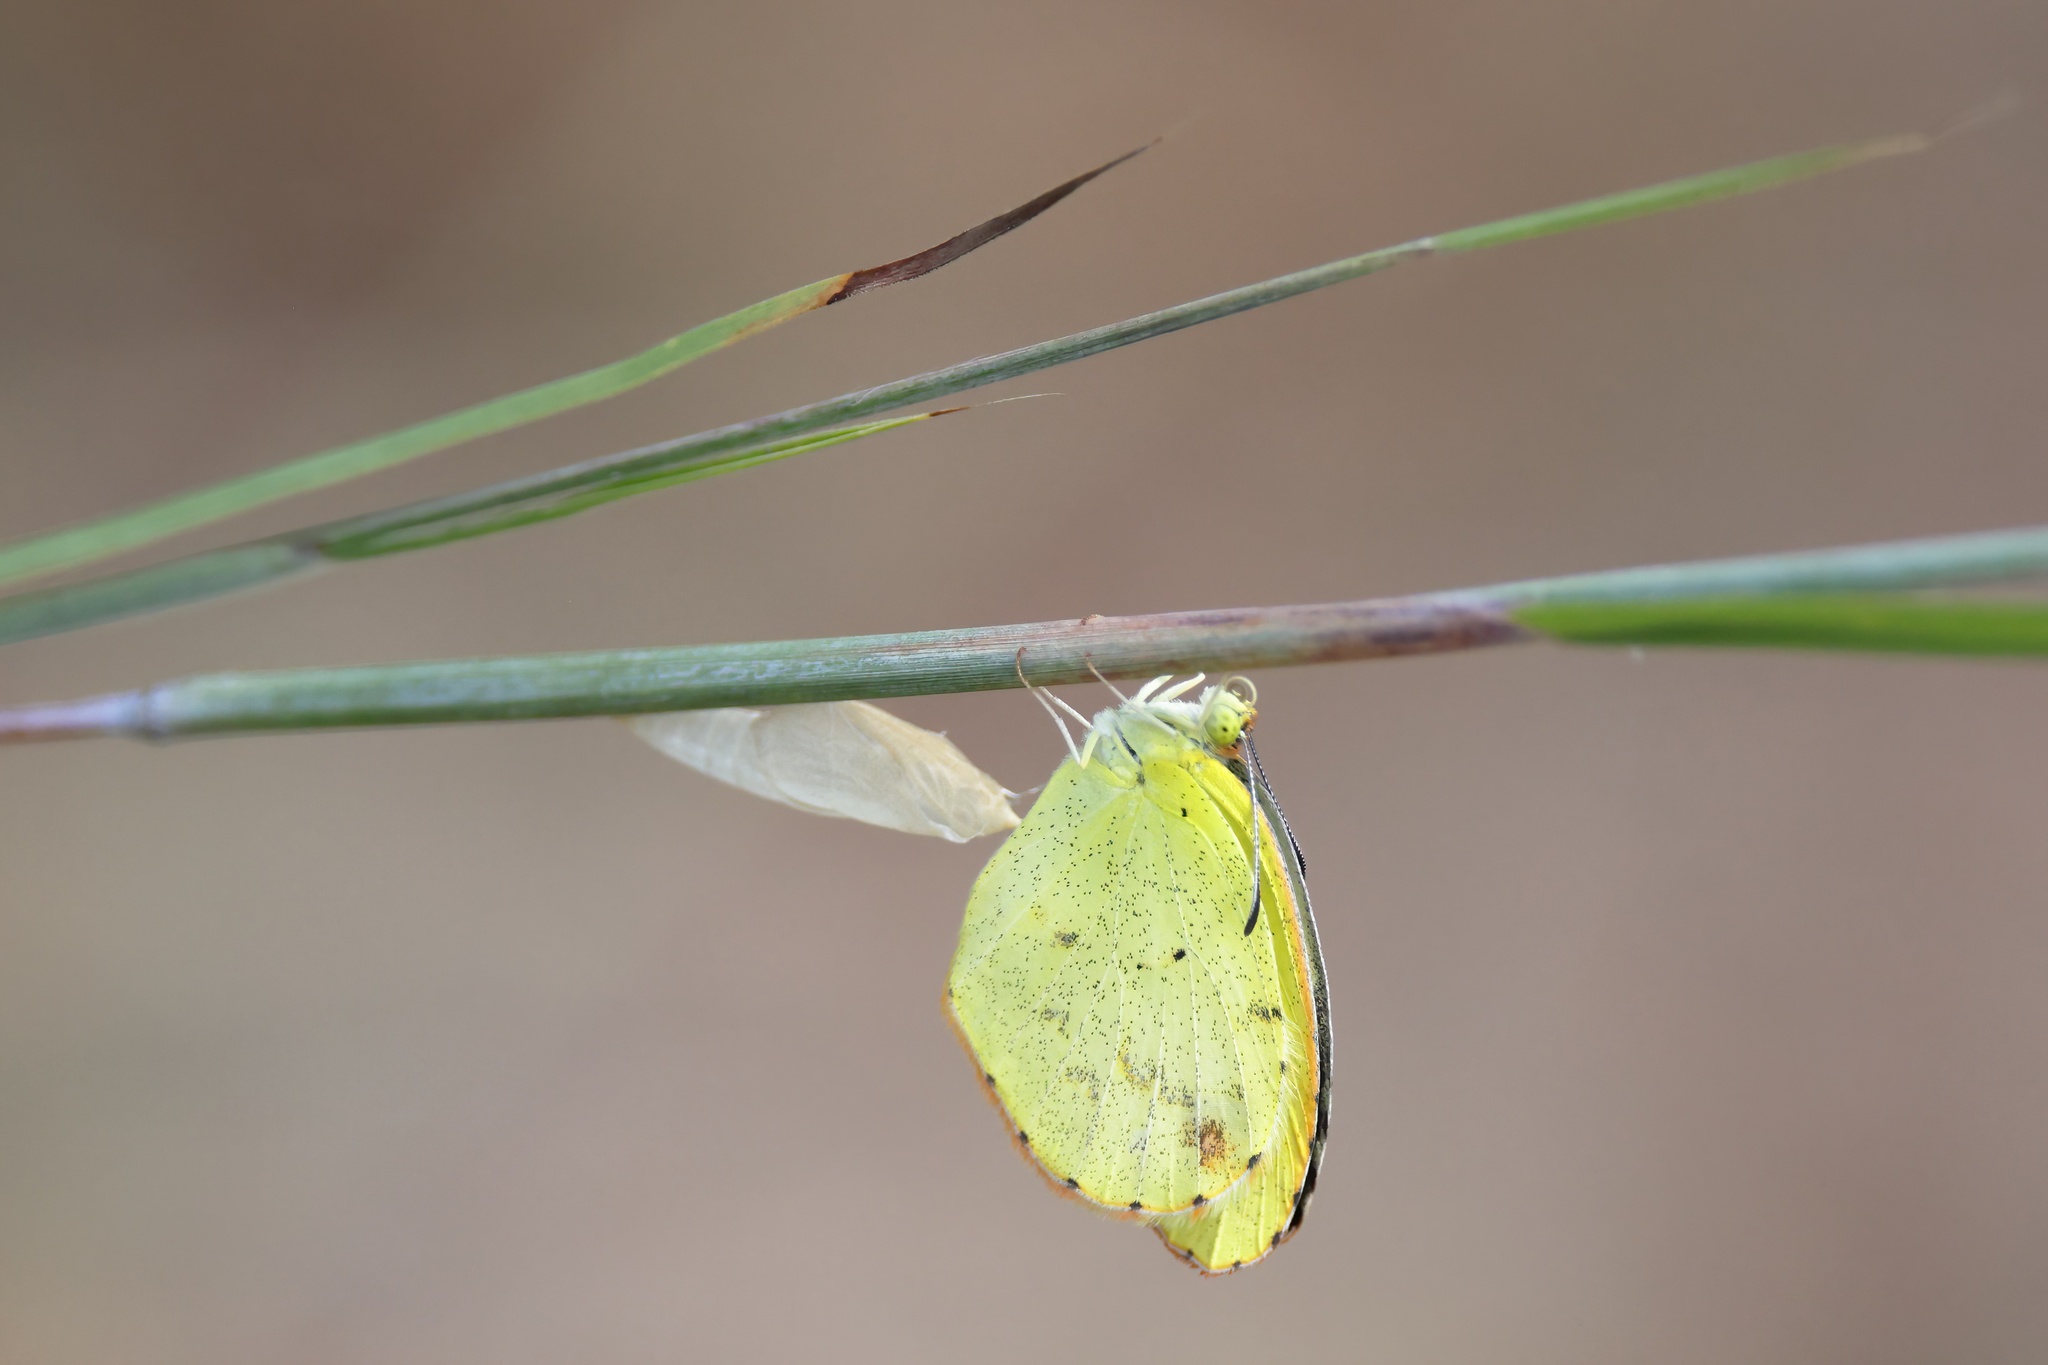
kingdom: Animalia
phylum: Arthropoda
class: Insecta
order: Lepidoptera
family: Pieridae
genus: Pyrisitia
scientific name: Pyrisitia lisa
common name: Little yellow
